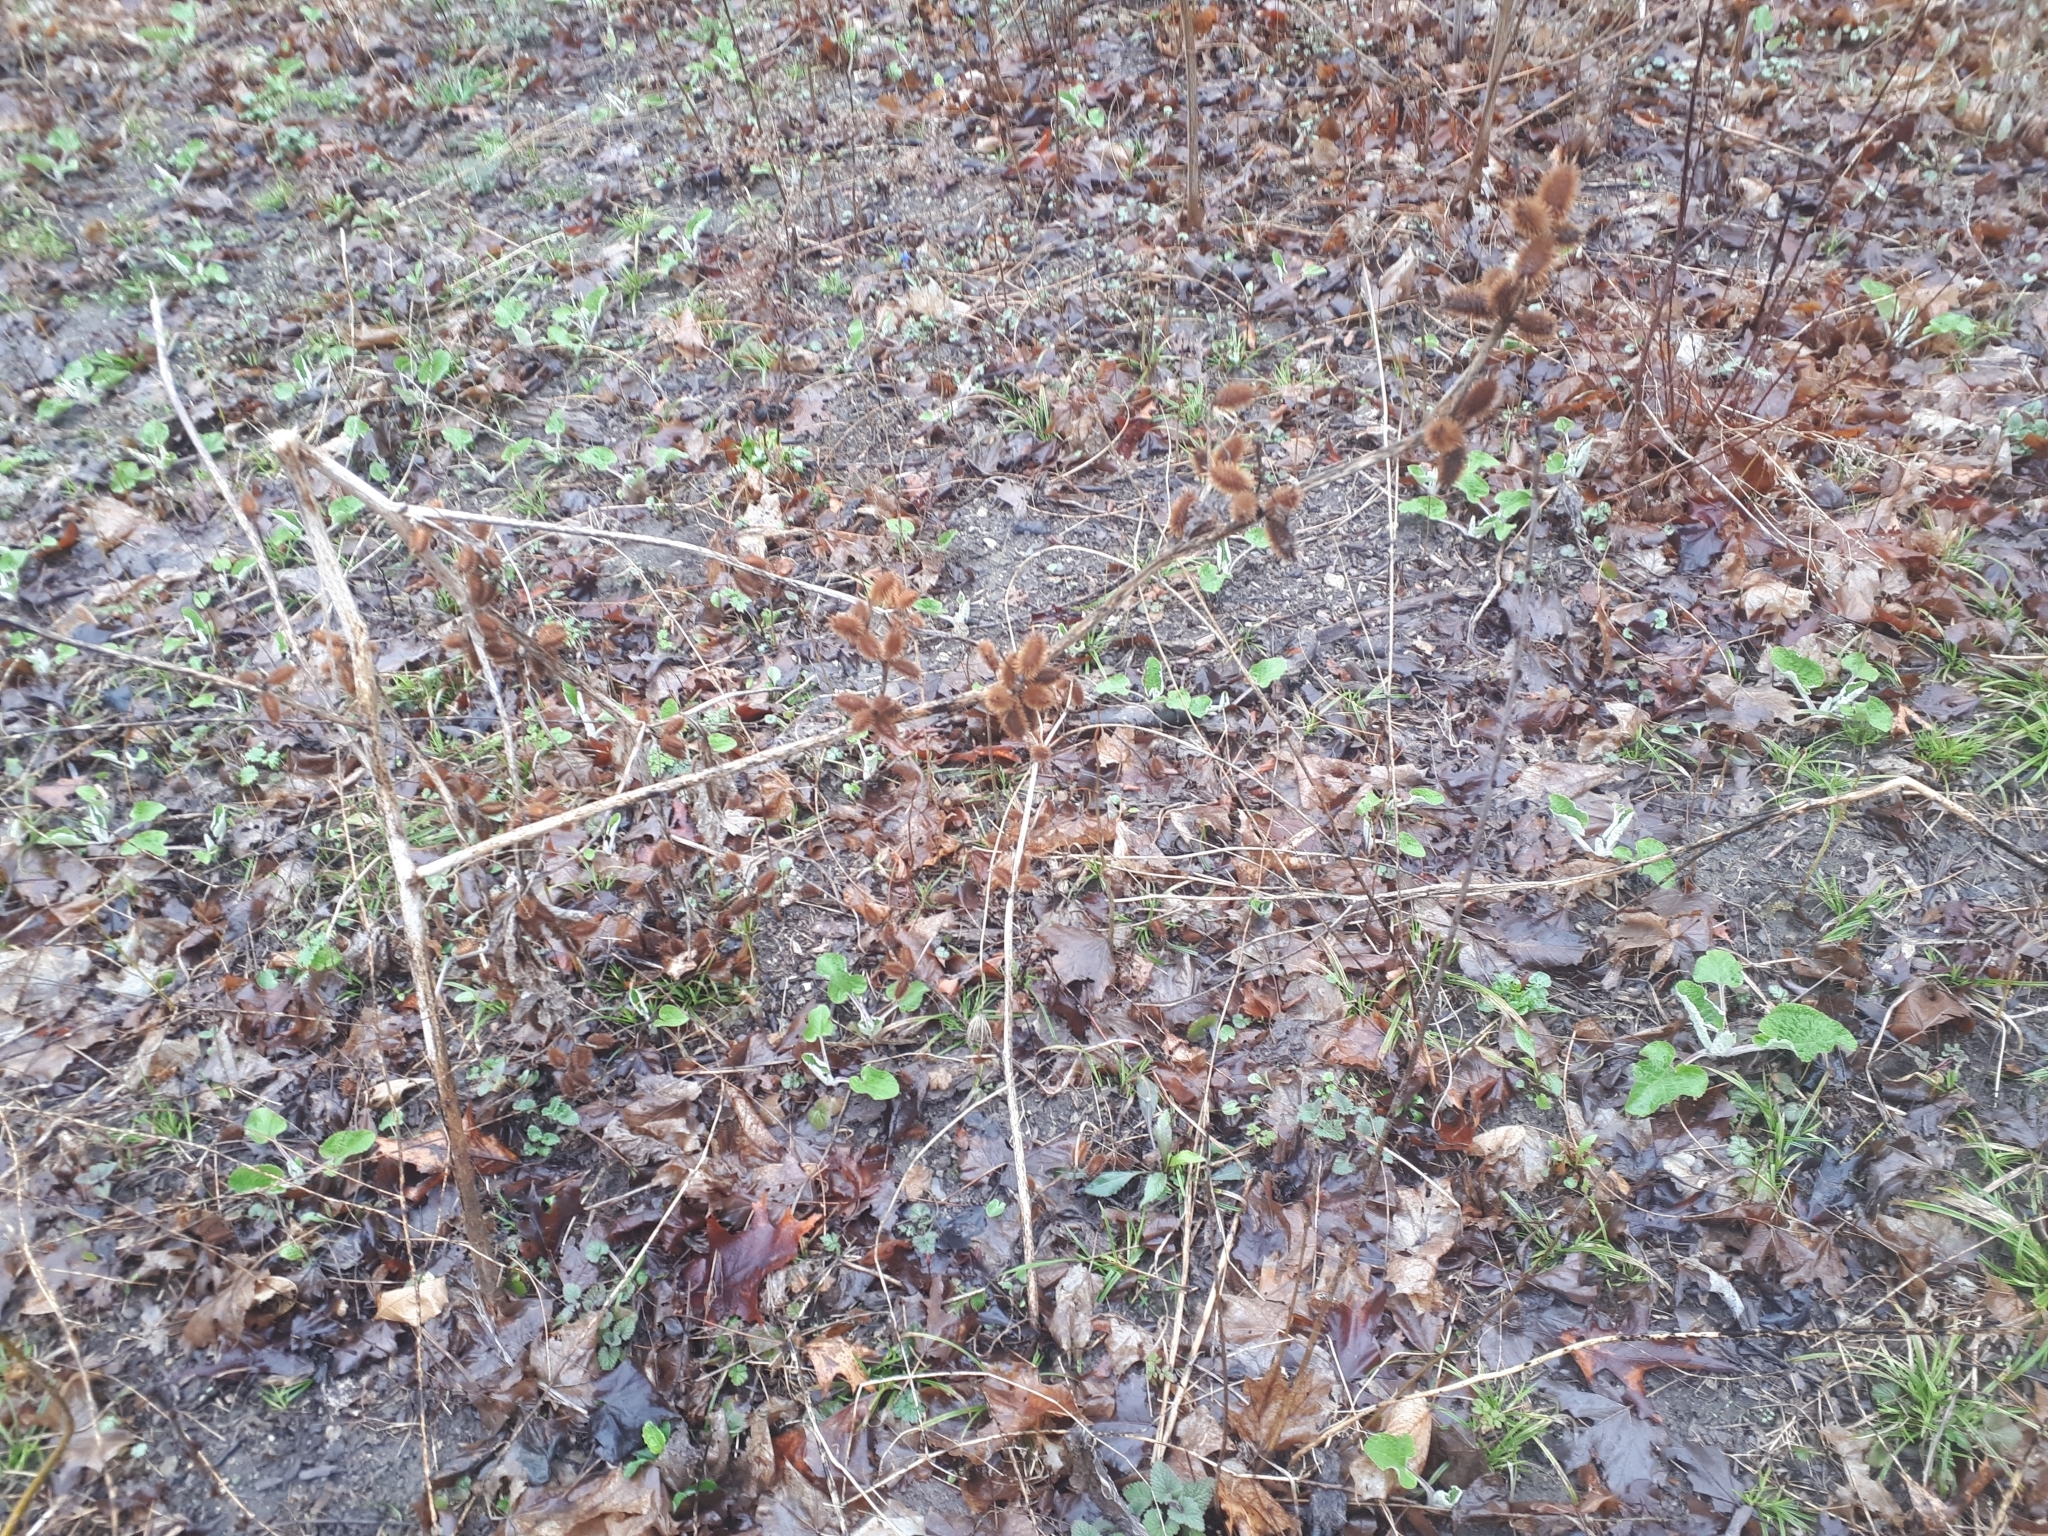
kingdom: Plantae
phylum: Tracheophyta
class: Magnoliopsida
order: Asterales
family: Asteraceae
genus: Xanthium
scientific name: Xanthium strumarium
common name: Rough cocklebur
